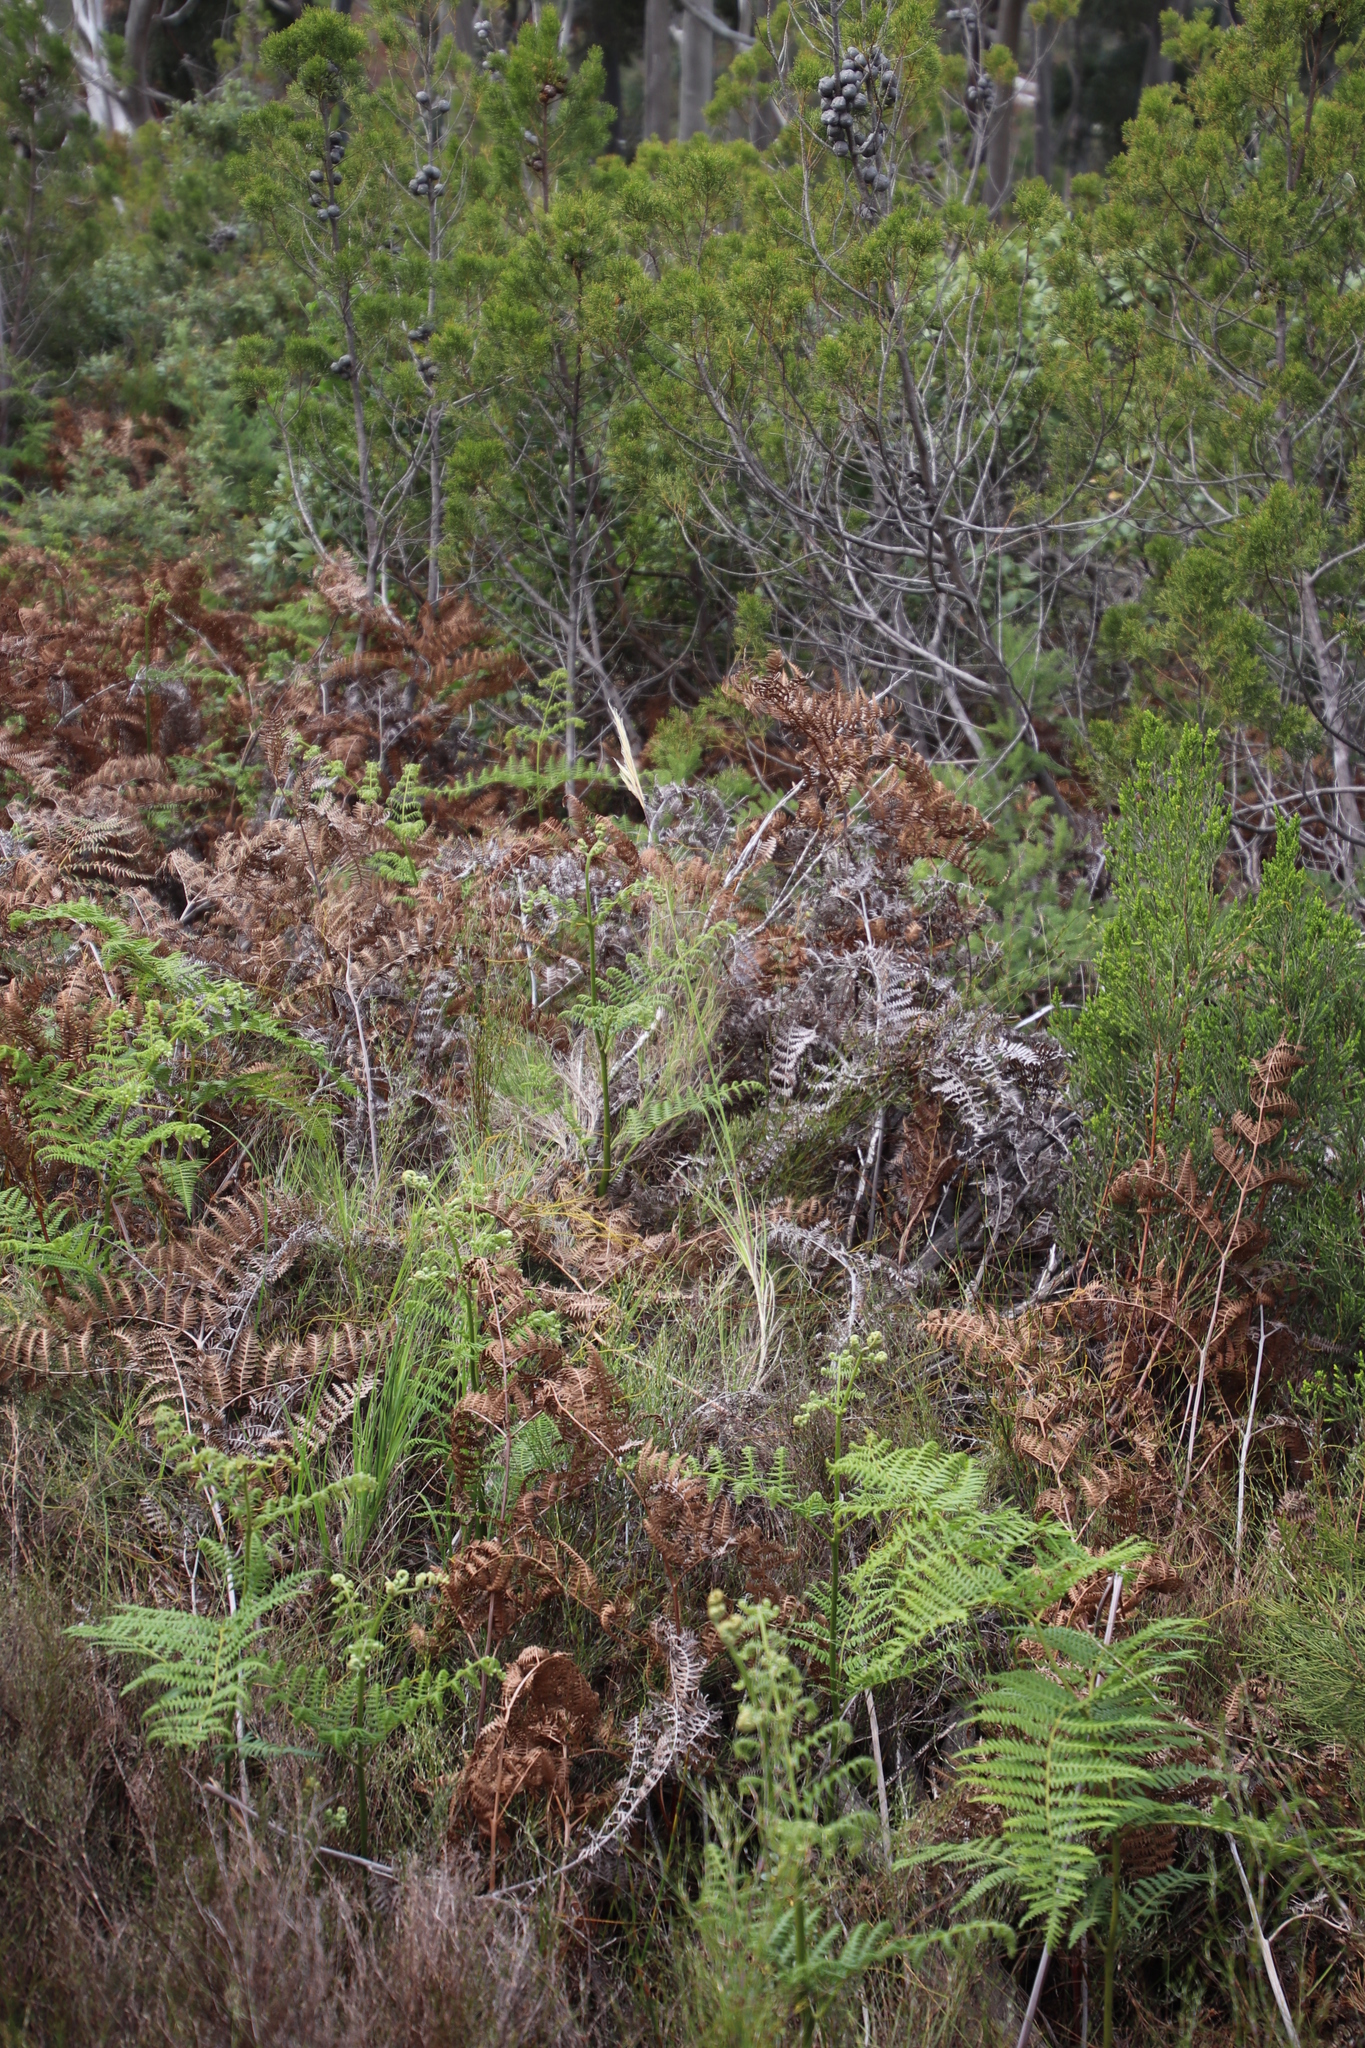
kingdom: Plantae
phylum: Tracheophyta
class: Polypodiopsida
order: Polypodiales
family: Dennstaedtiaceae
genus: Pteridium
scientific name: Pteridium aquilinum
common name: Bracken
